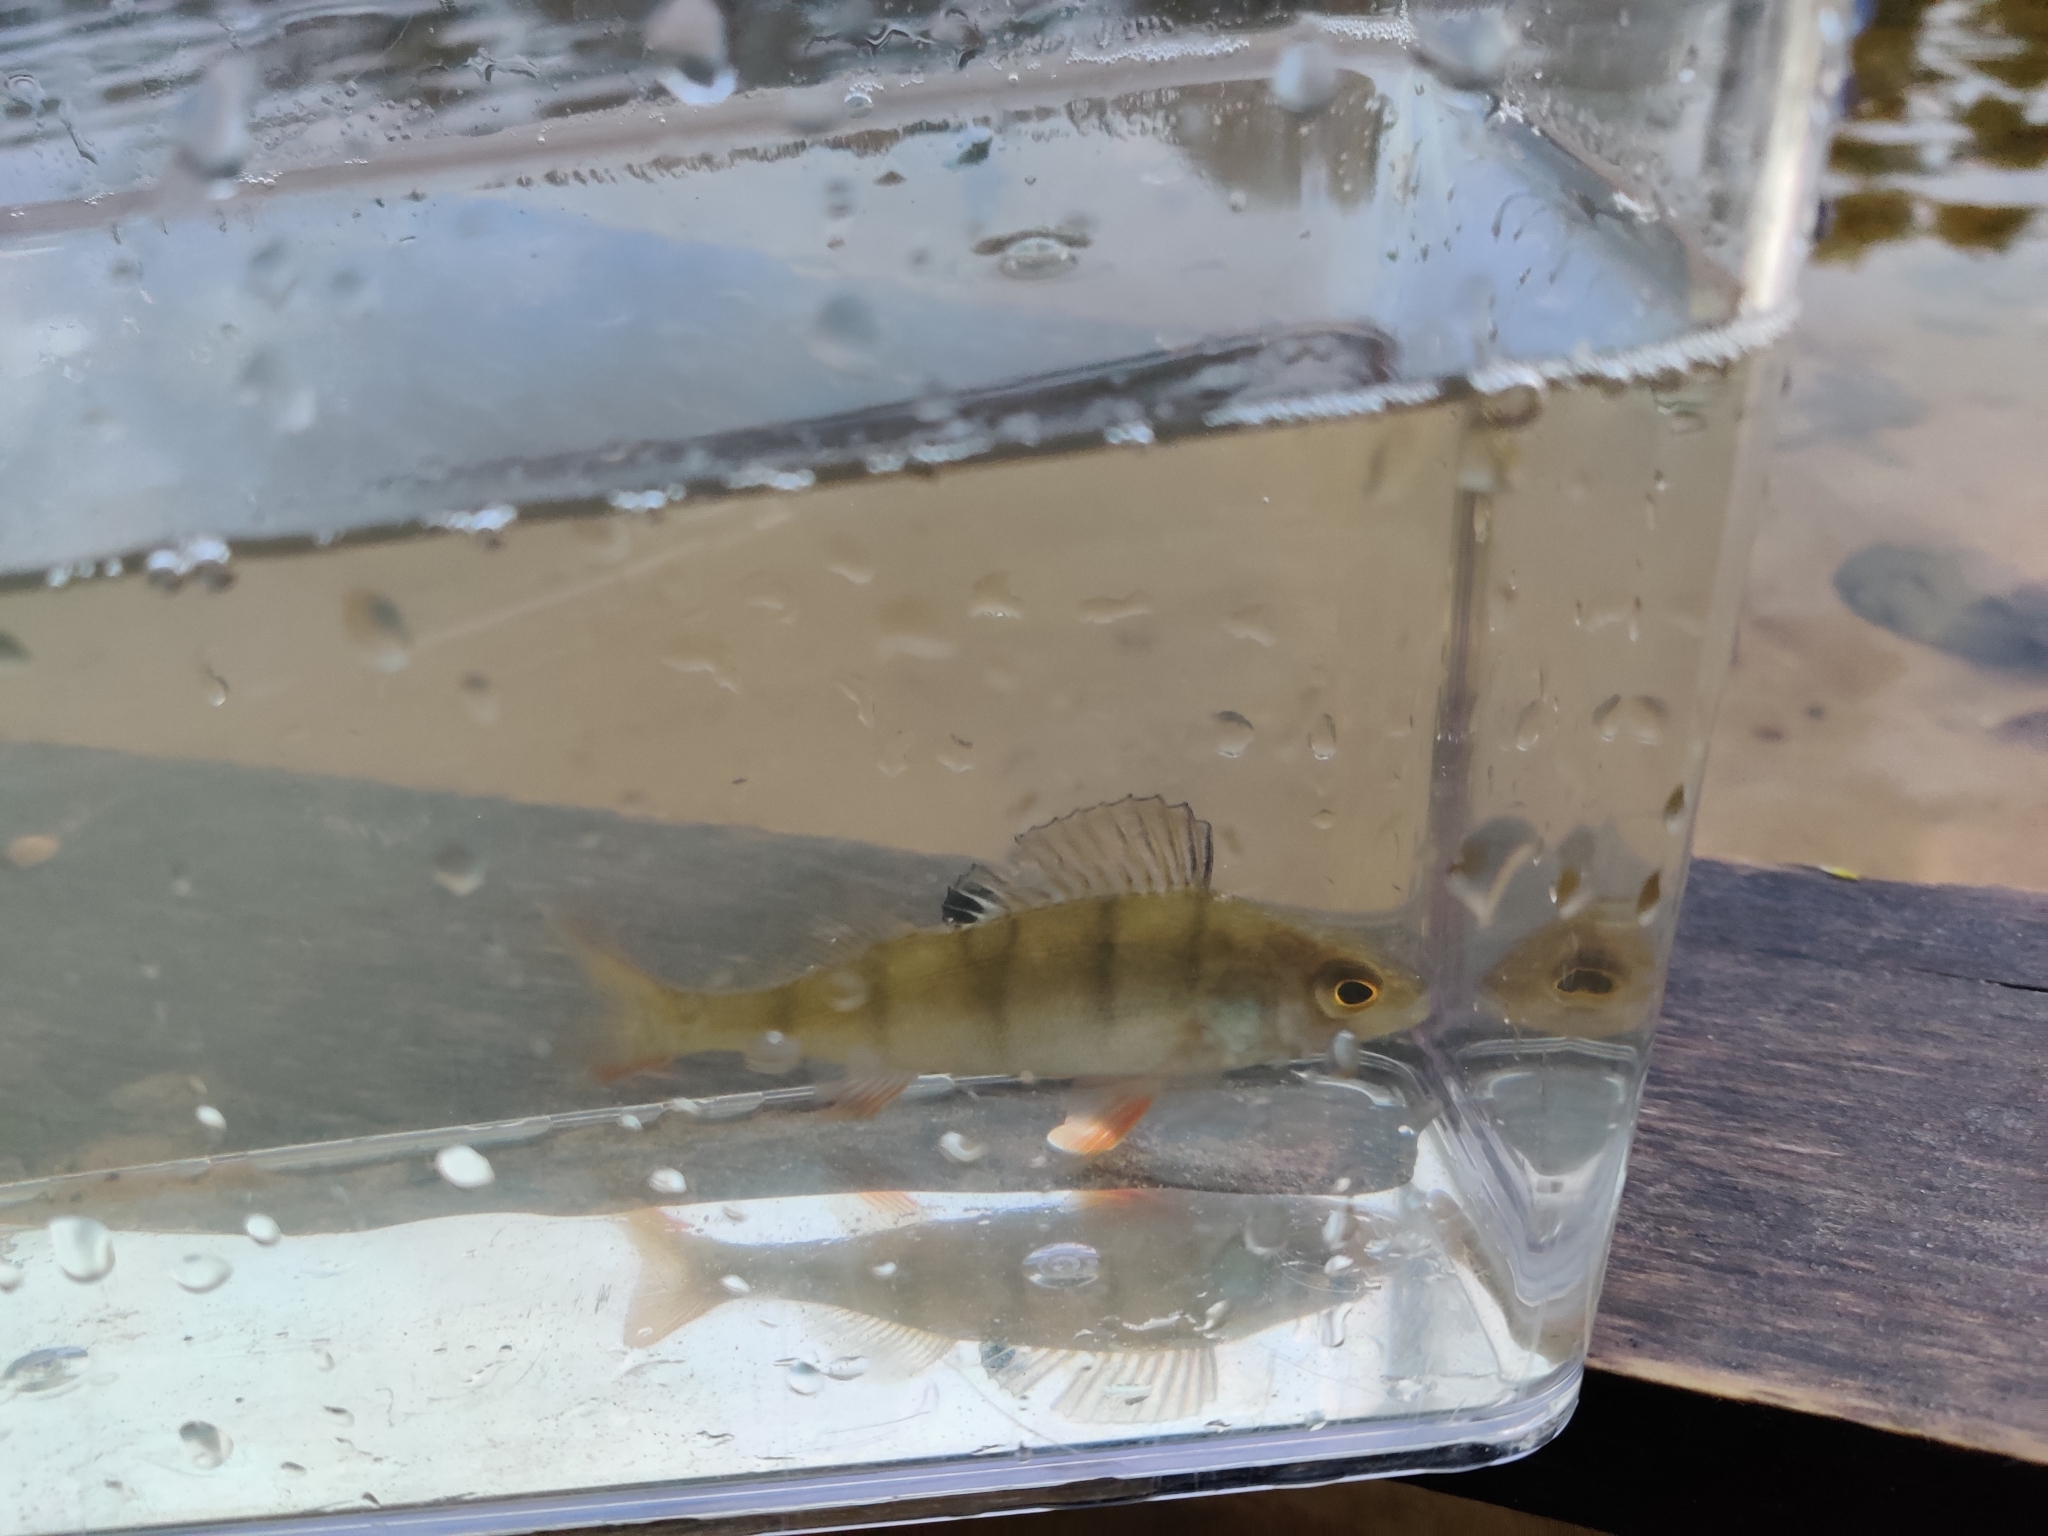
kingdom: Animalia
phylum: Chordata
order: Perciformes
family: Percidae
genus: Perca
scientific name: Perca fluviatilis
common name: Perch
